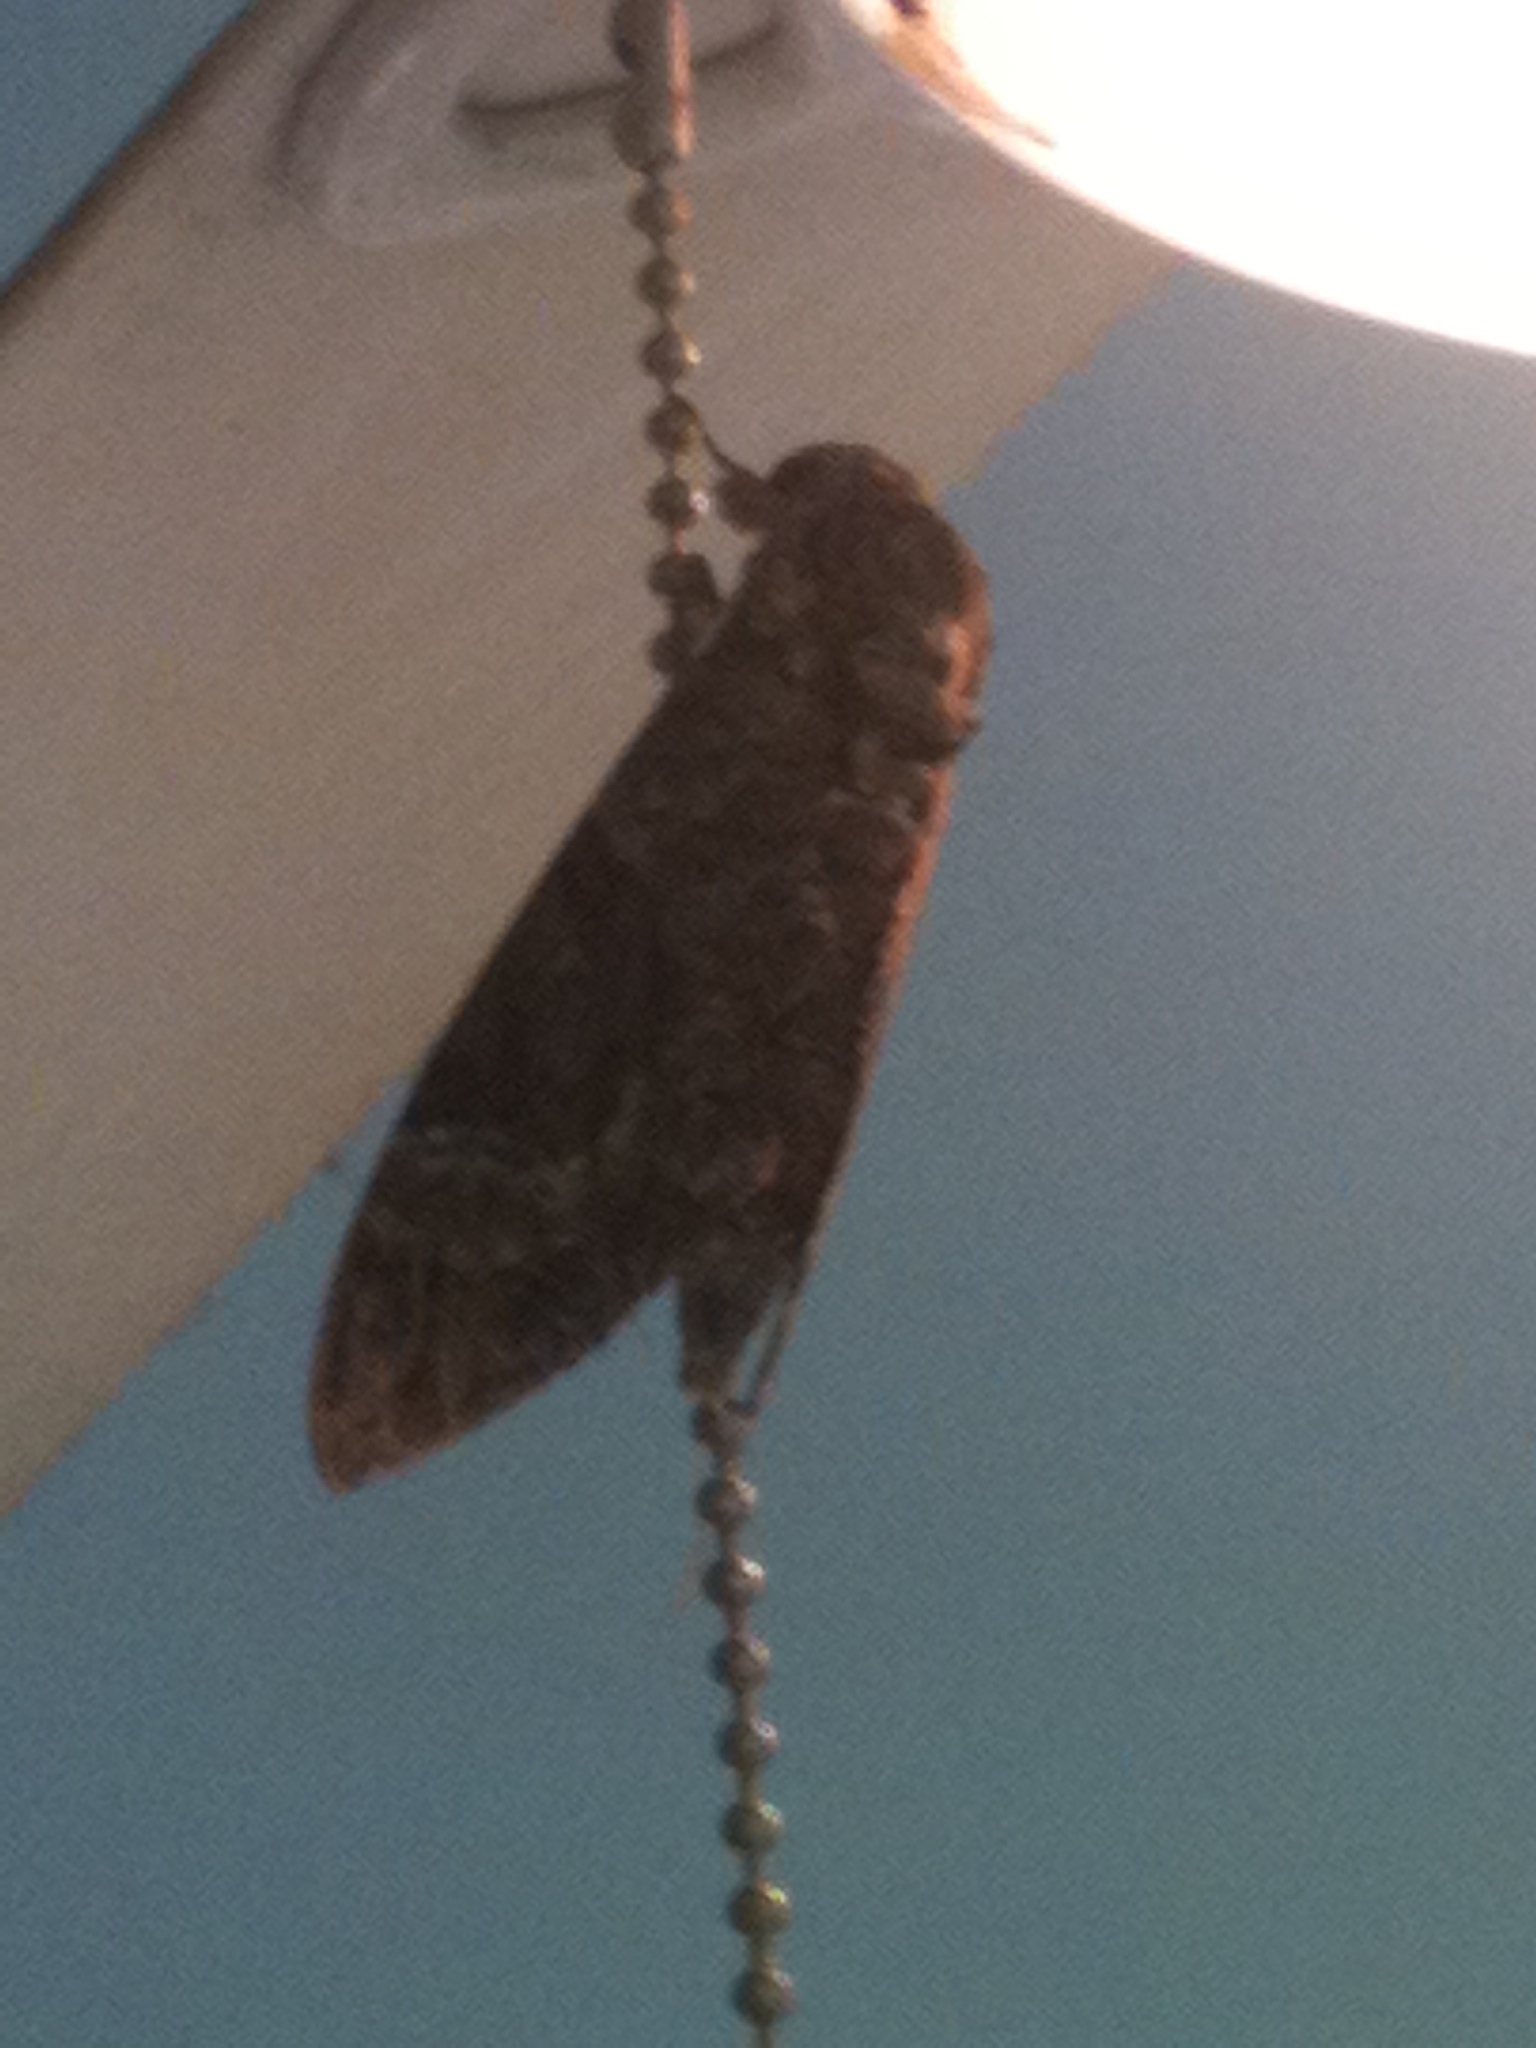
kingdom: Animalia
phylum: Arthropoda
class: Insecta
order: Lepidoptera
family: Sphingidae
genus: Agrius
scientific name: Agrius cingulata
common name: Pink-spotted hawkmoth
